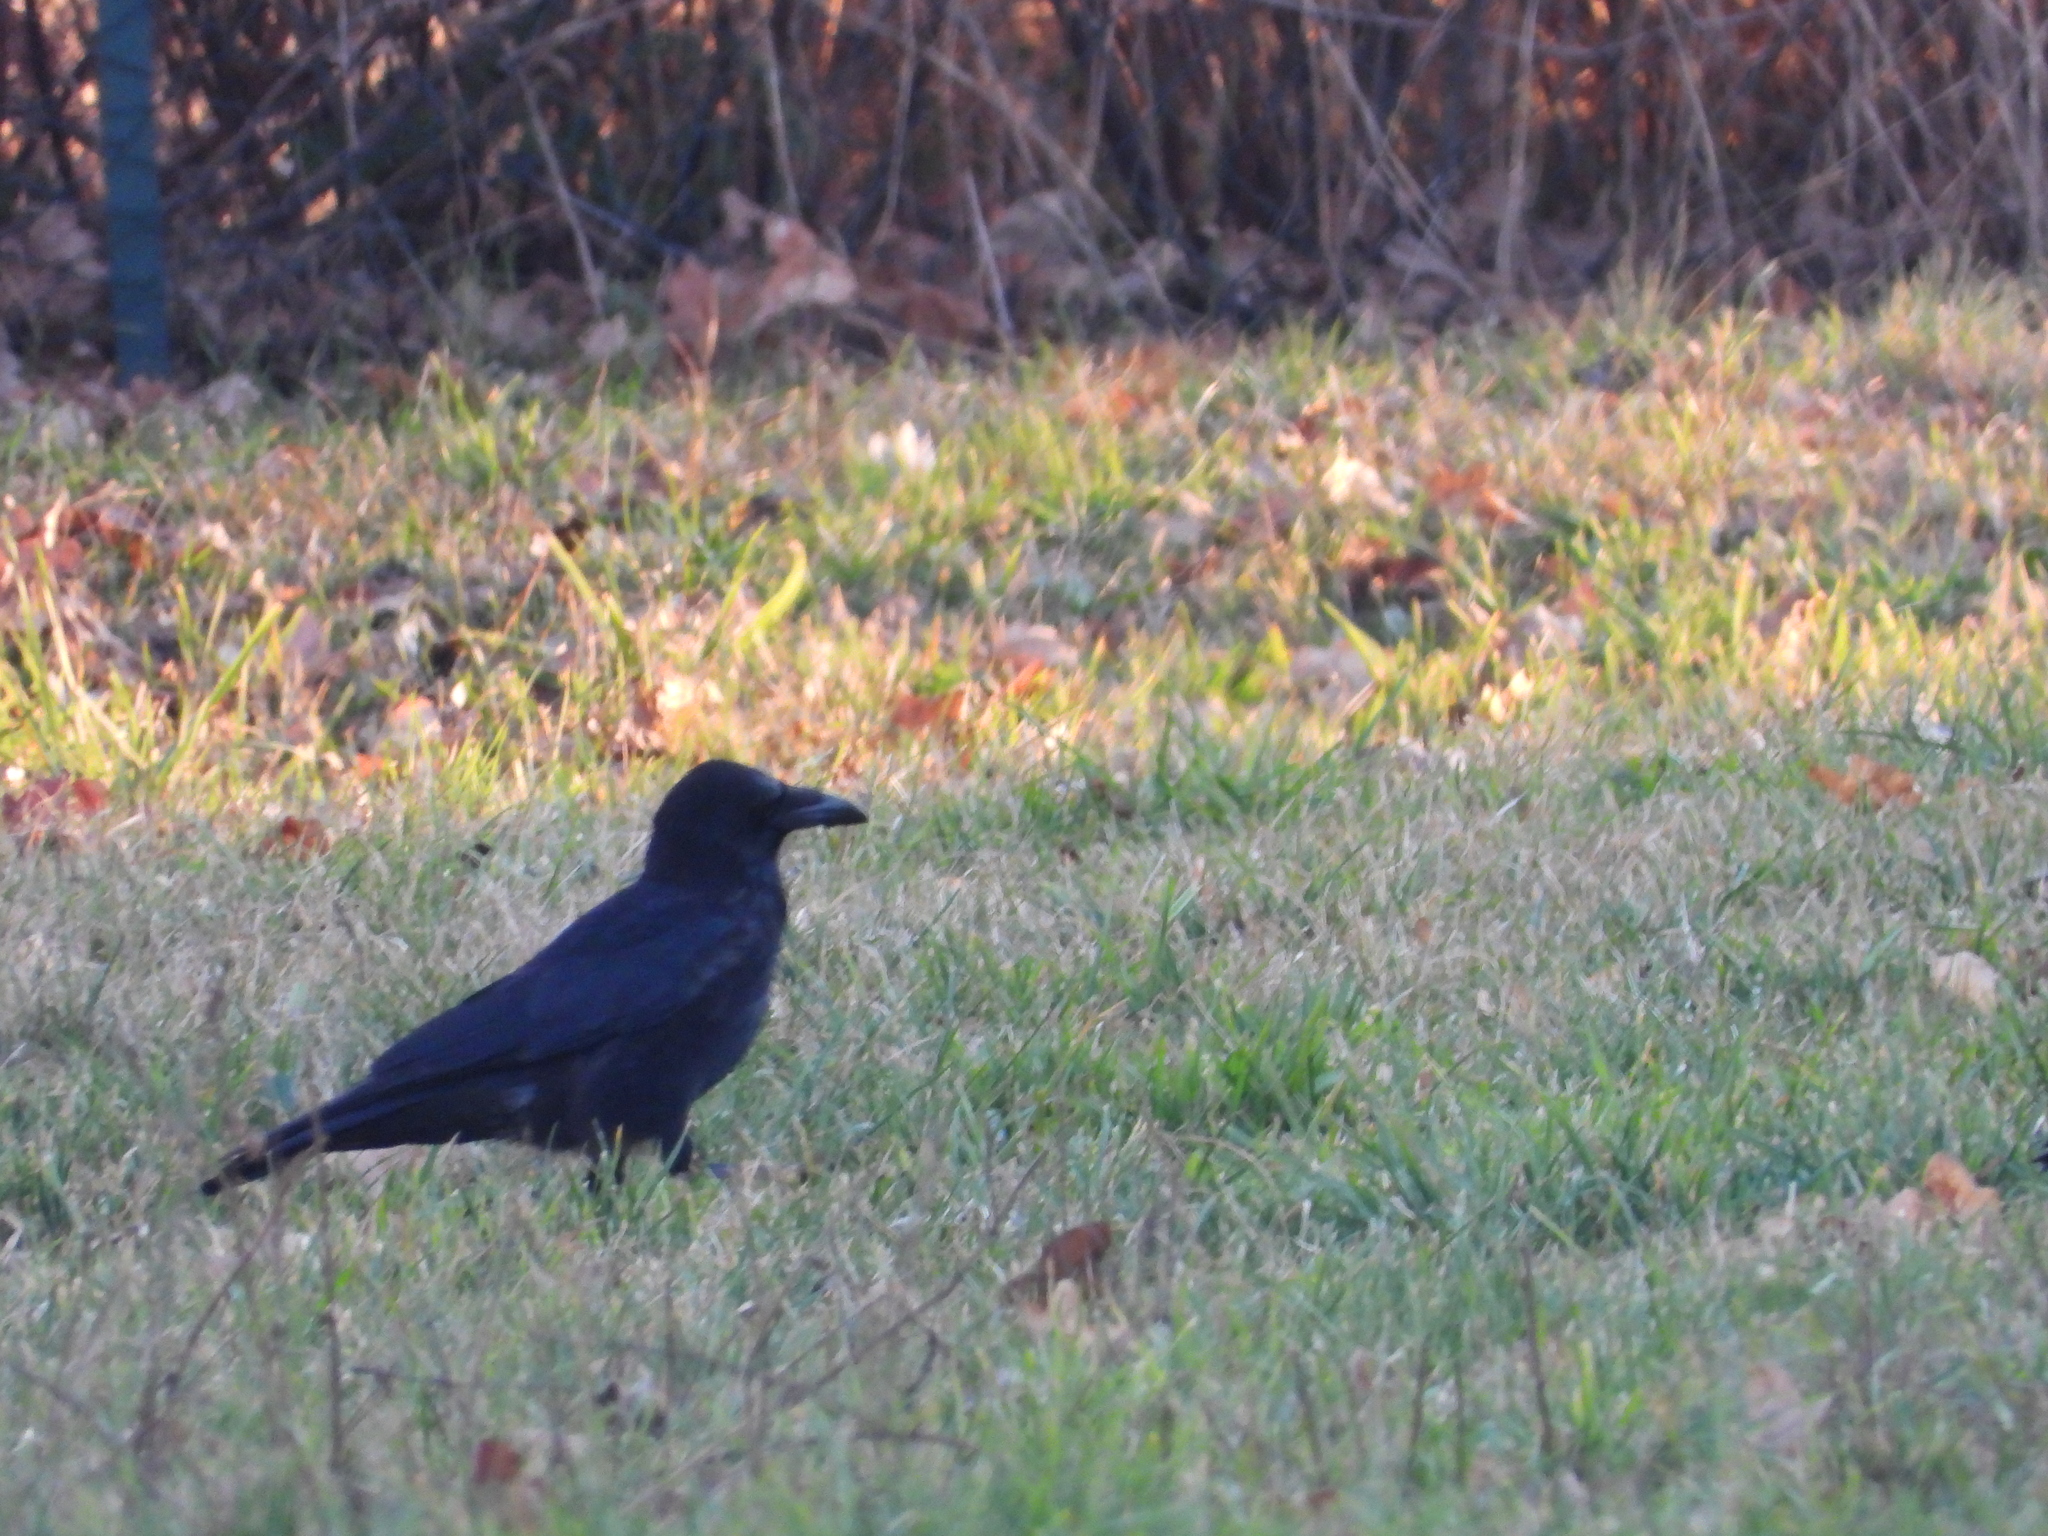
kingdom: Animalia
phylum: Chordata
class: Aves
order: Passeriformes
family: Corvidae
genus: Corvus
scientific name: Corvus corone
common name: Carrion crow
